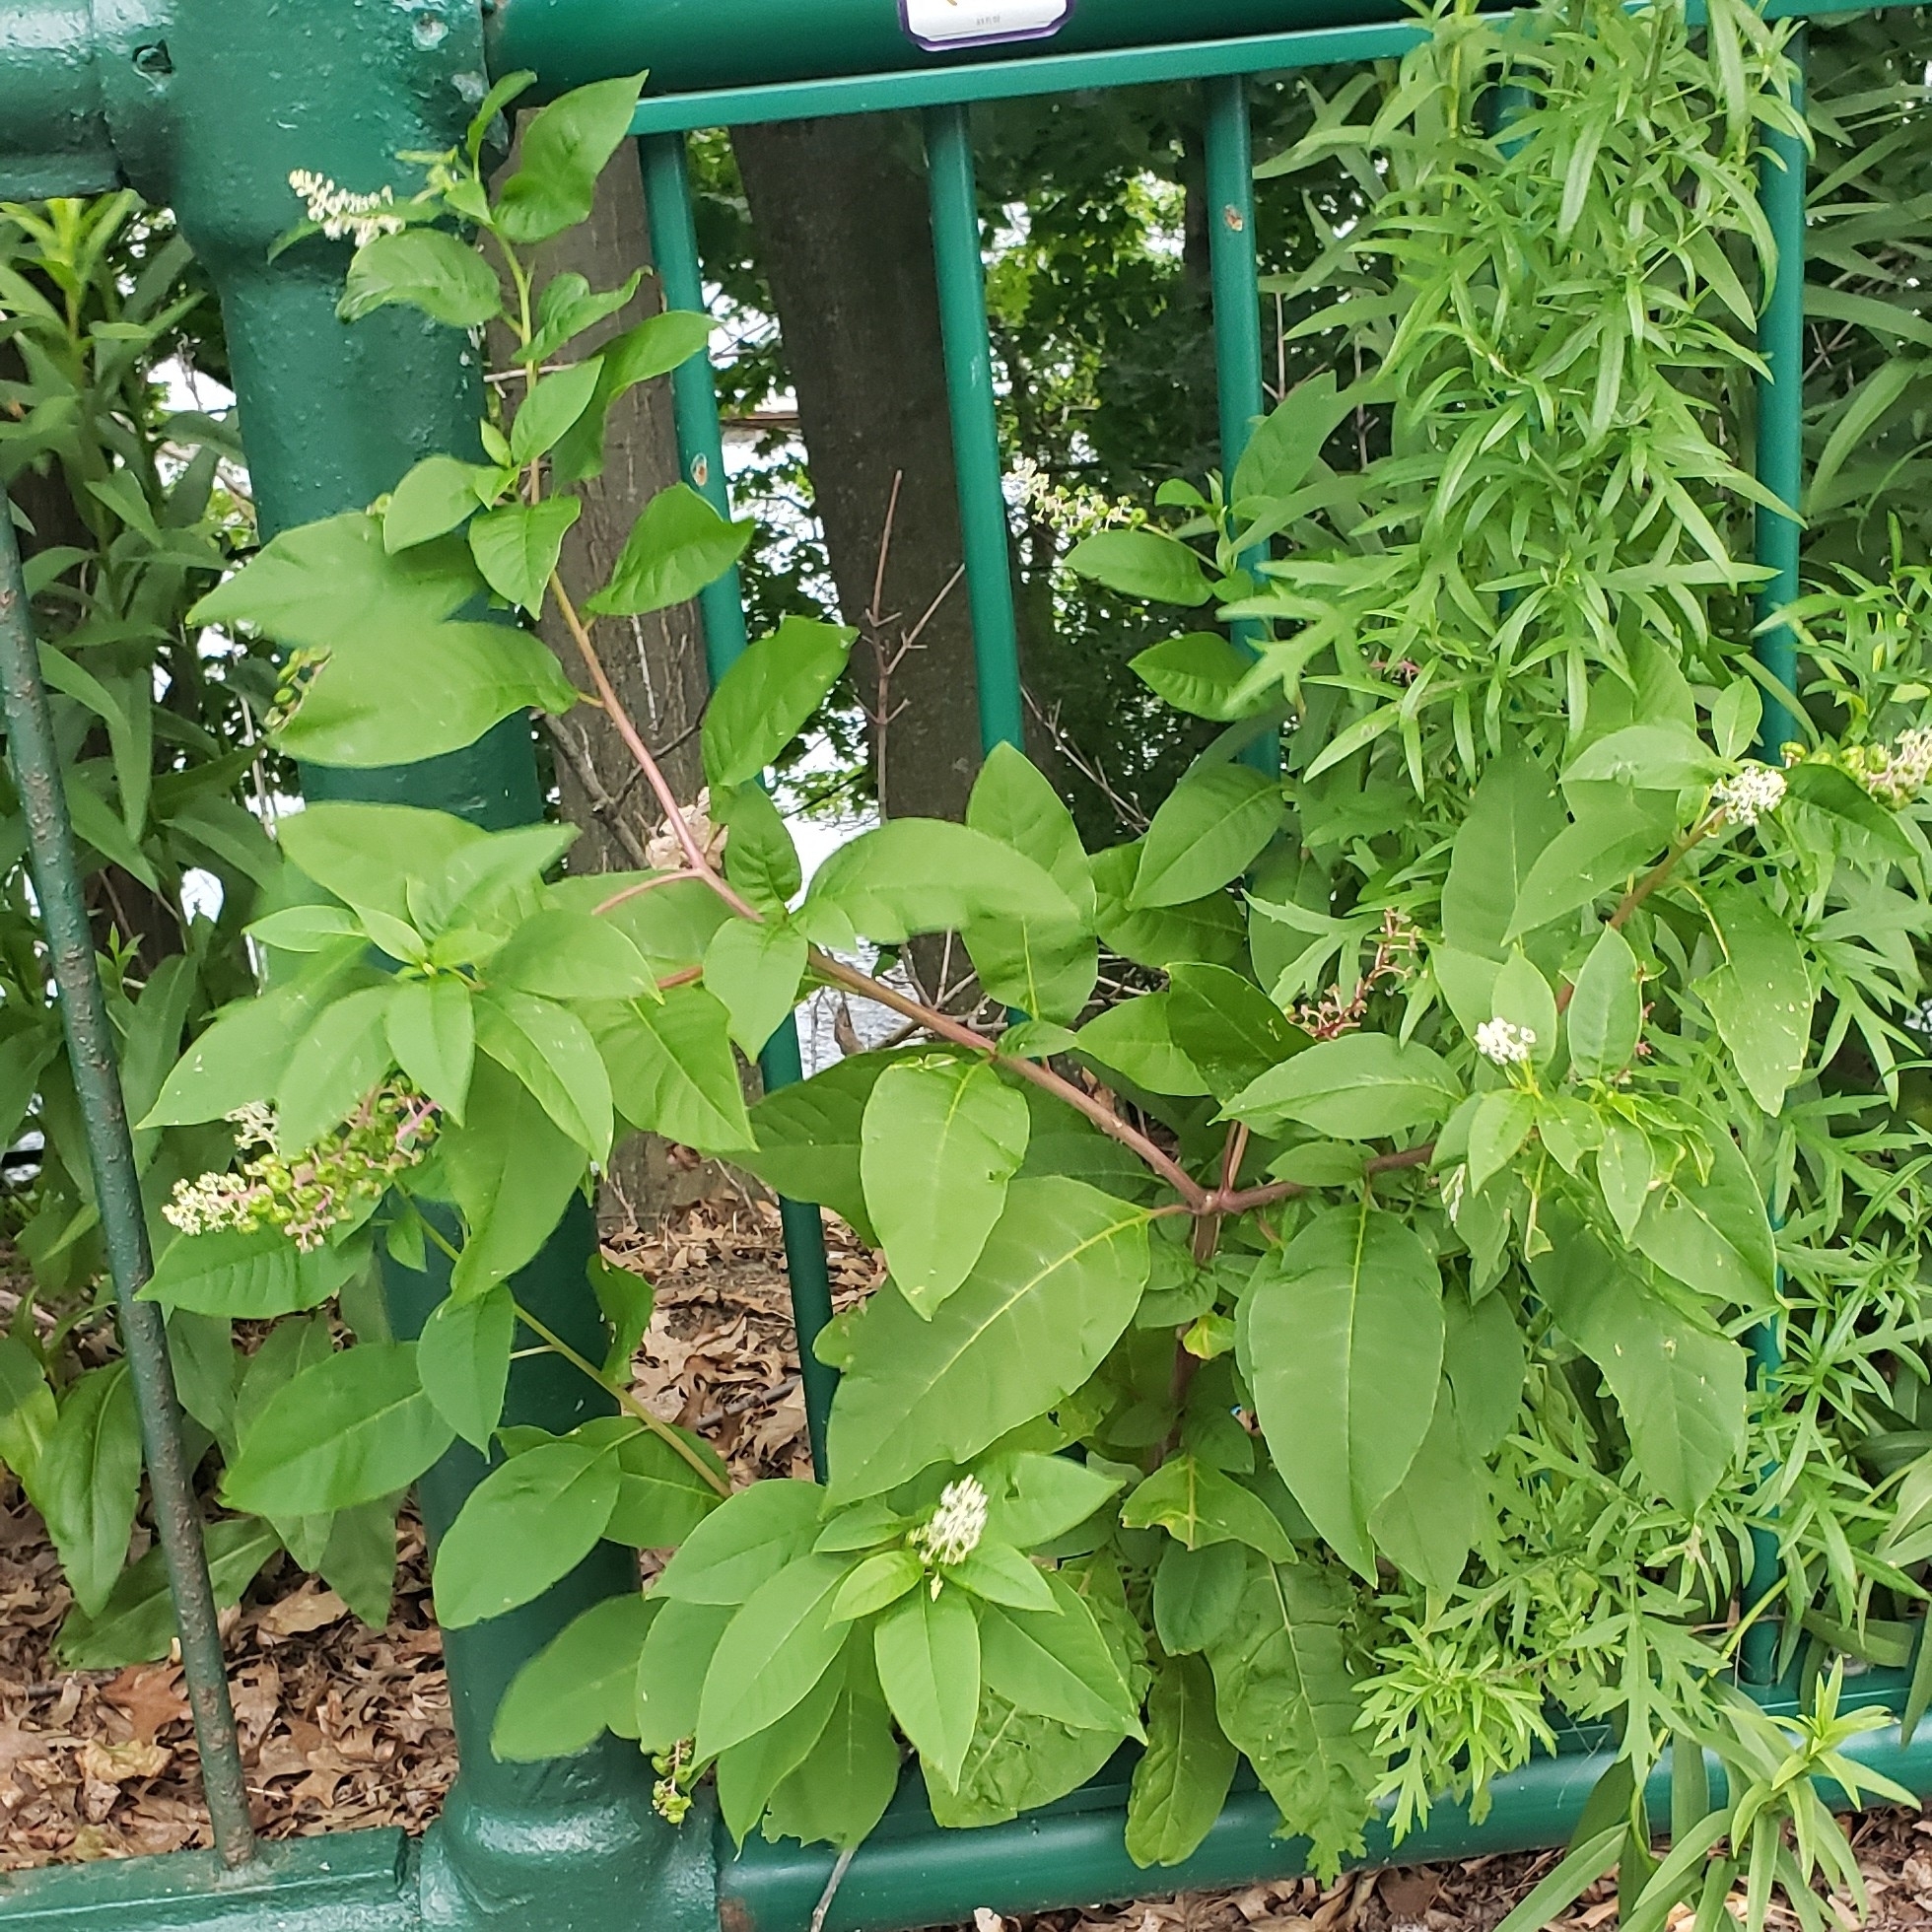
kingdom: Plantae
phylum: Tracheophyta
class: Magnoliopsida
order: Caryophyllales
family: Phytolaccaceae
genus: Phytolacca
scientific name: Phytolacca americana
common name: American pokeweed
